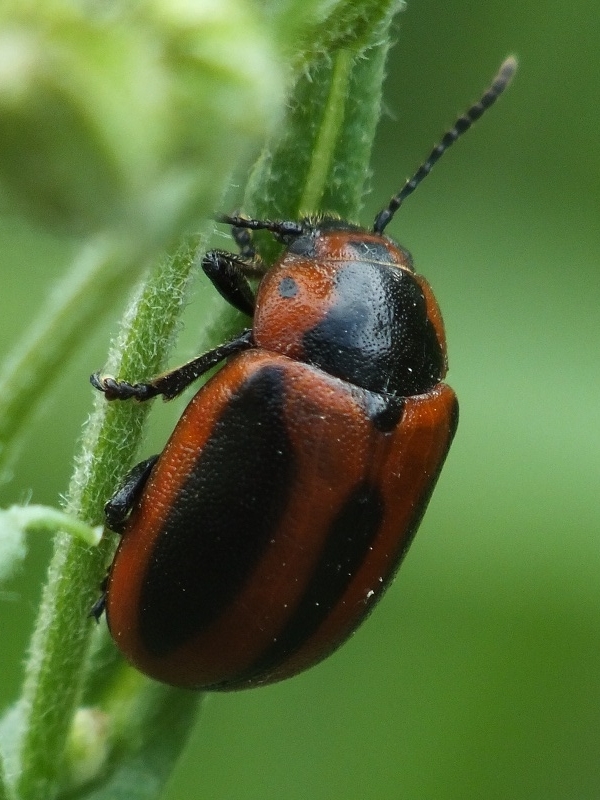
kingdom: Animalia
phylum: Arthropoda
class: Insecta
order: Coleoptera
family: Chrysomelidae
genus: Entomoscelis
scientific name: Entomoscelis adonidis
